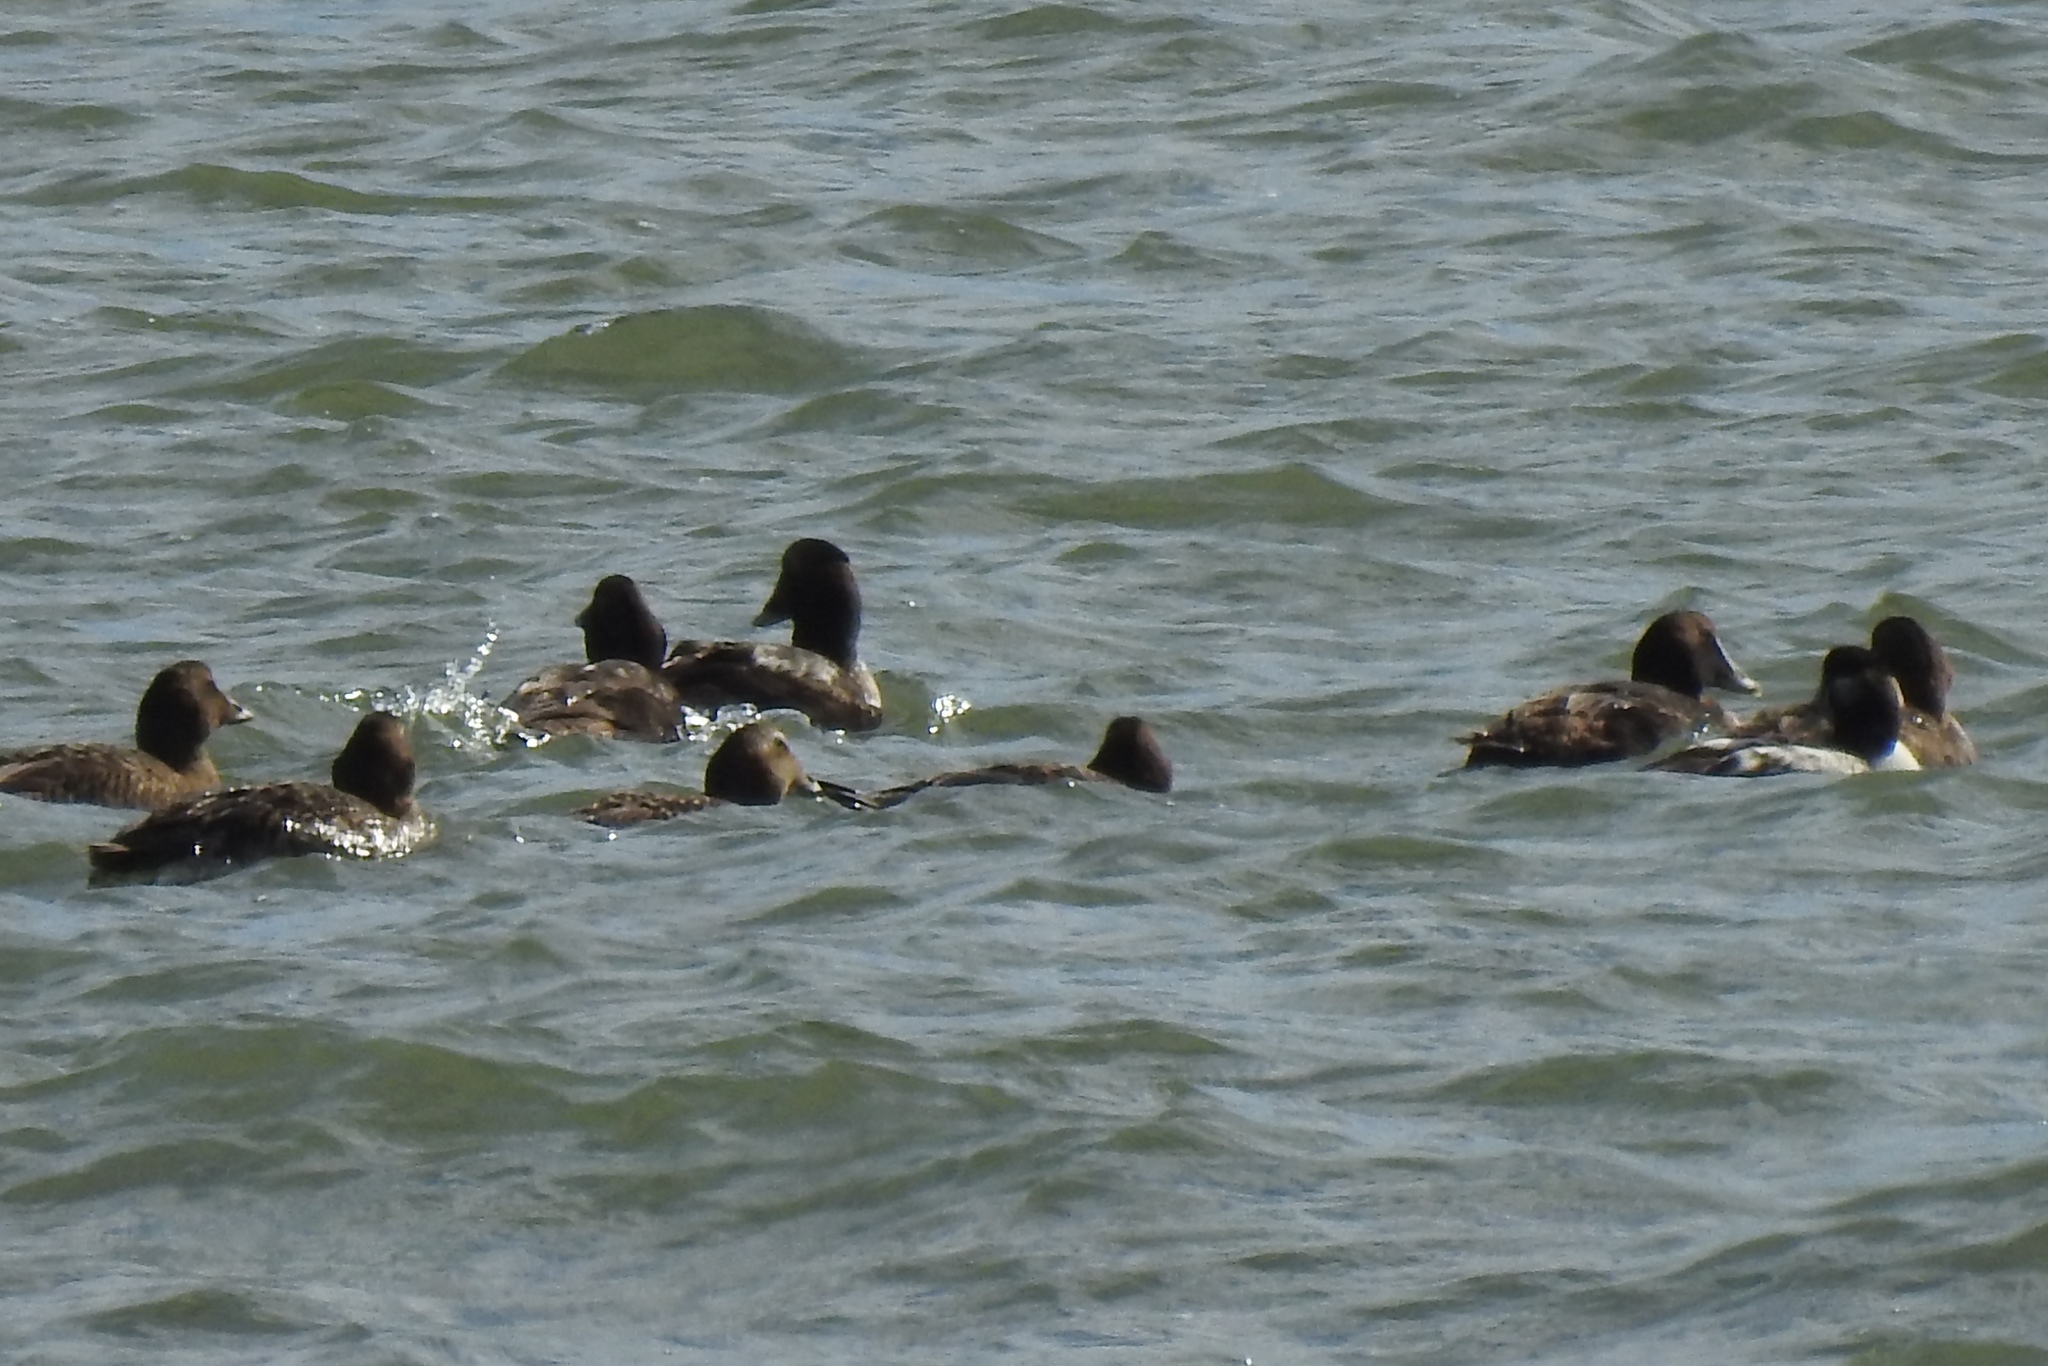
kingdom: Animalia
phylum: Chordata
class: Aves
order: Anseriformes
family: Anatidae
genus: Somateria
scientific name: Somateria mollissima
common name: Common eider
